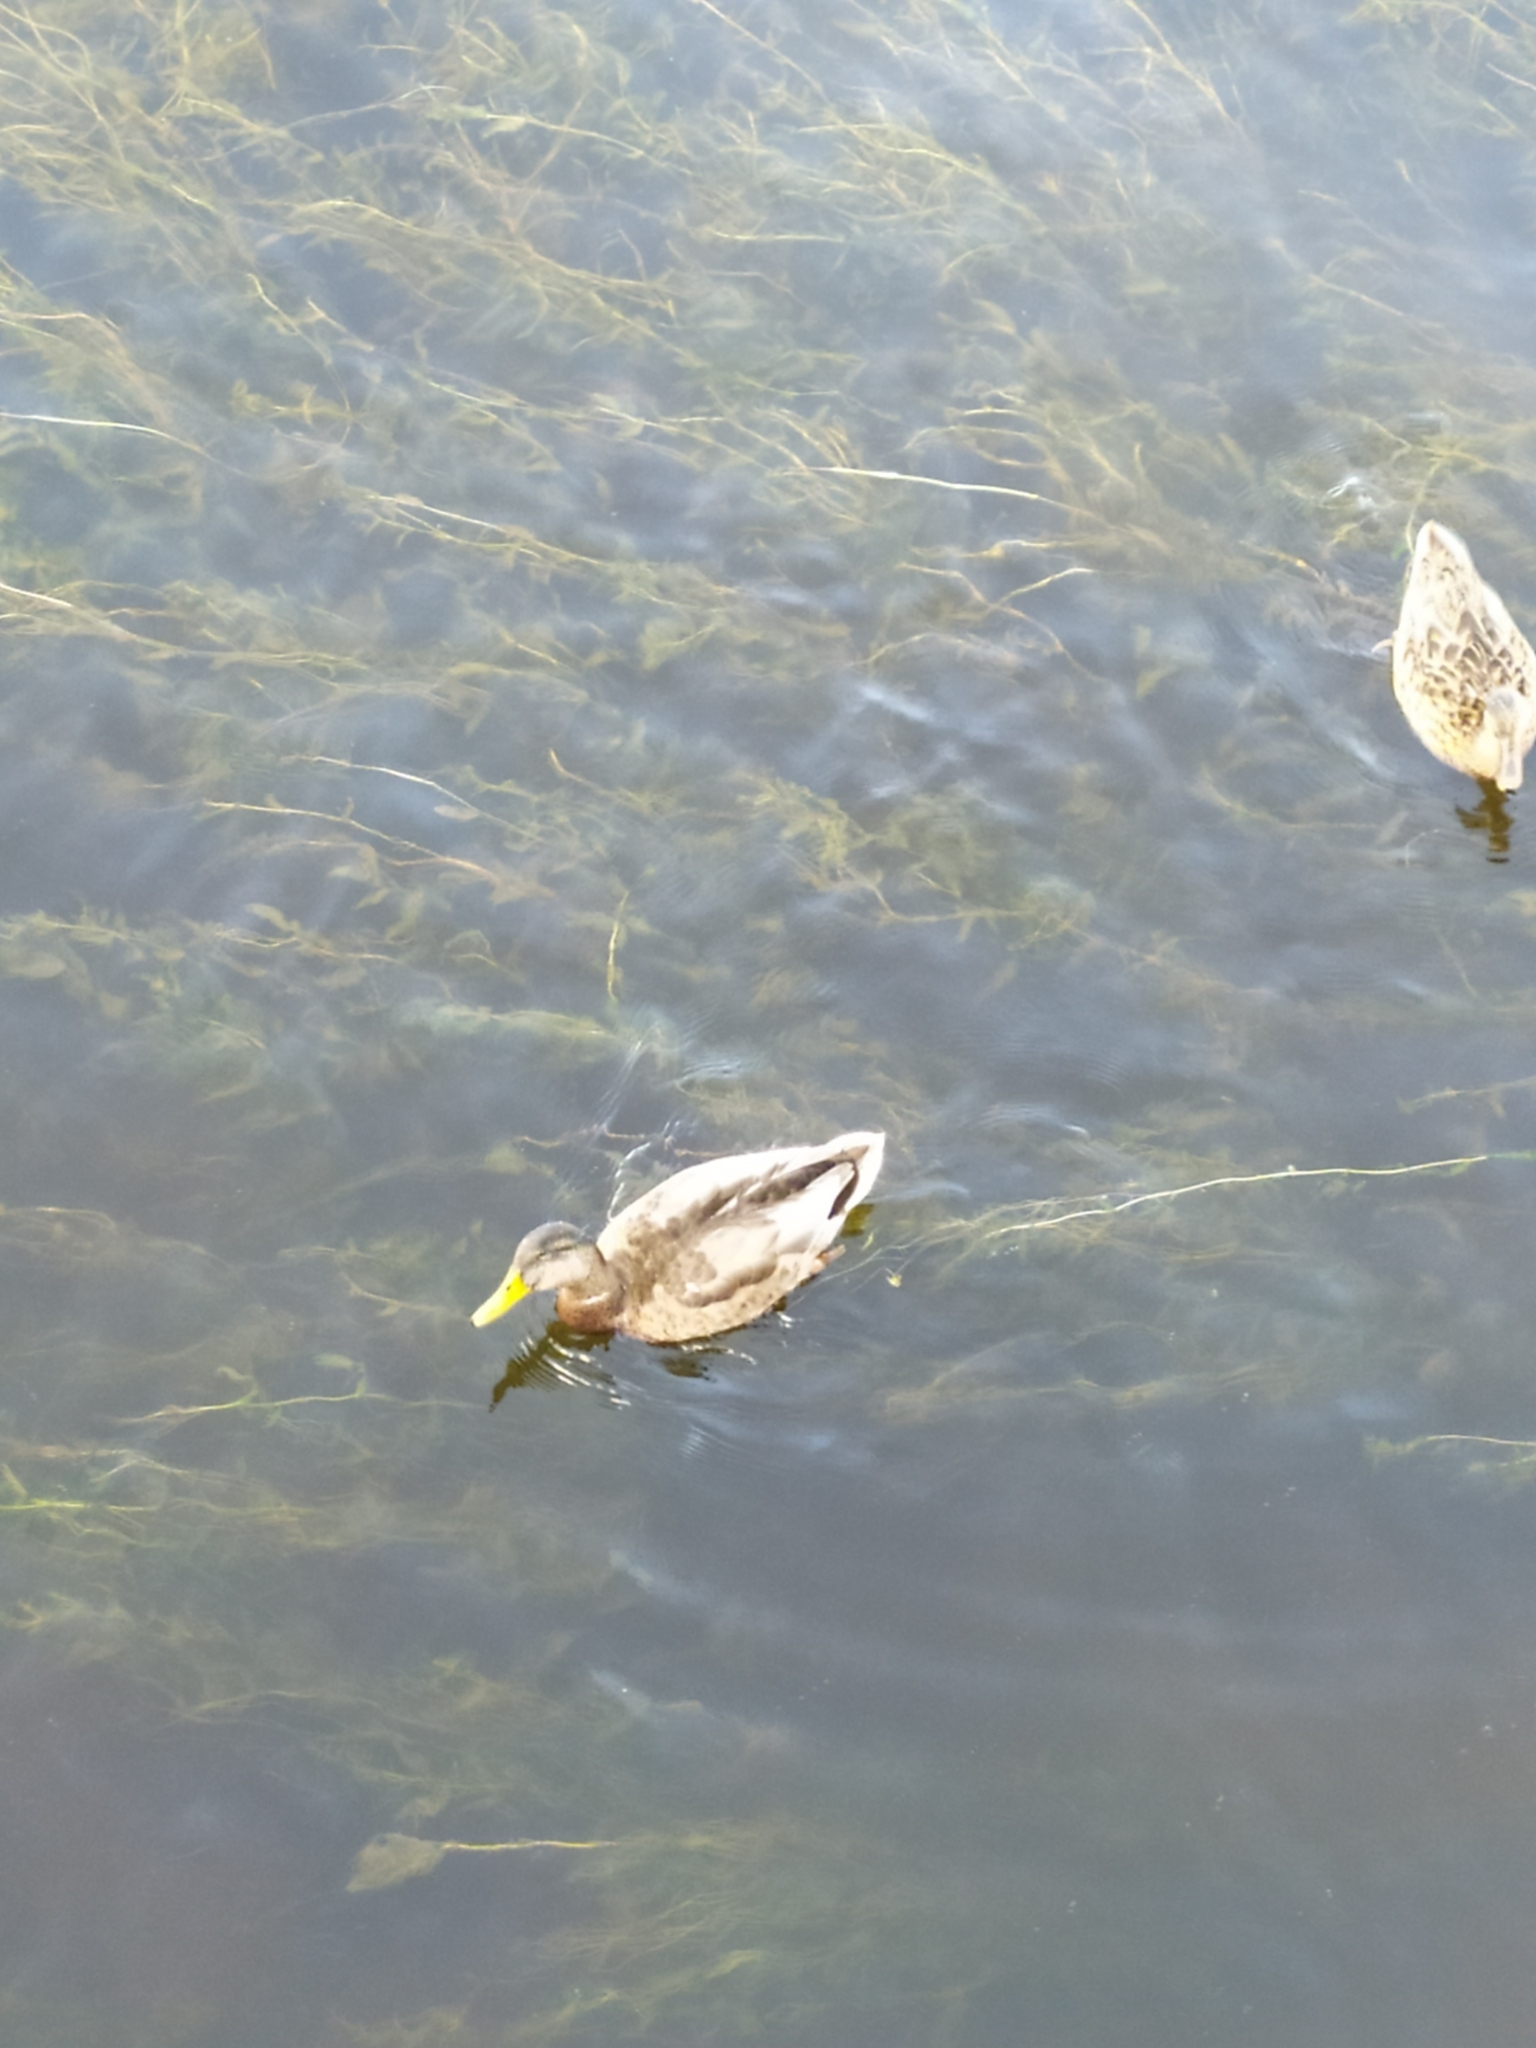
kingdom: Animalia
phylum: Chordata
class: Aves
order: Anseriformes
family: Anatidae
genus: Anas
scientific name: Anas platyrhynchos
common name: Mallard
